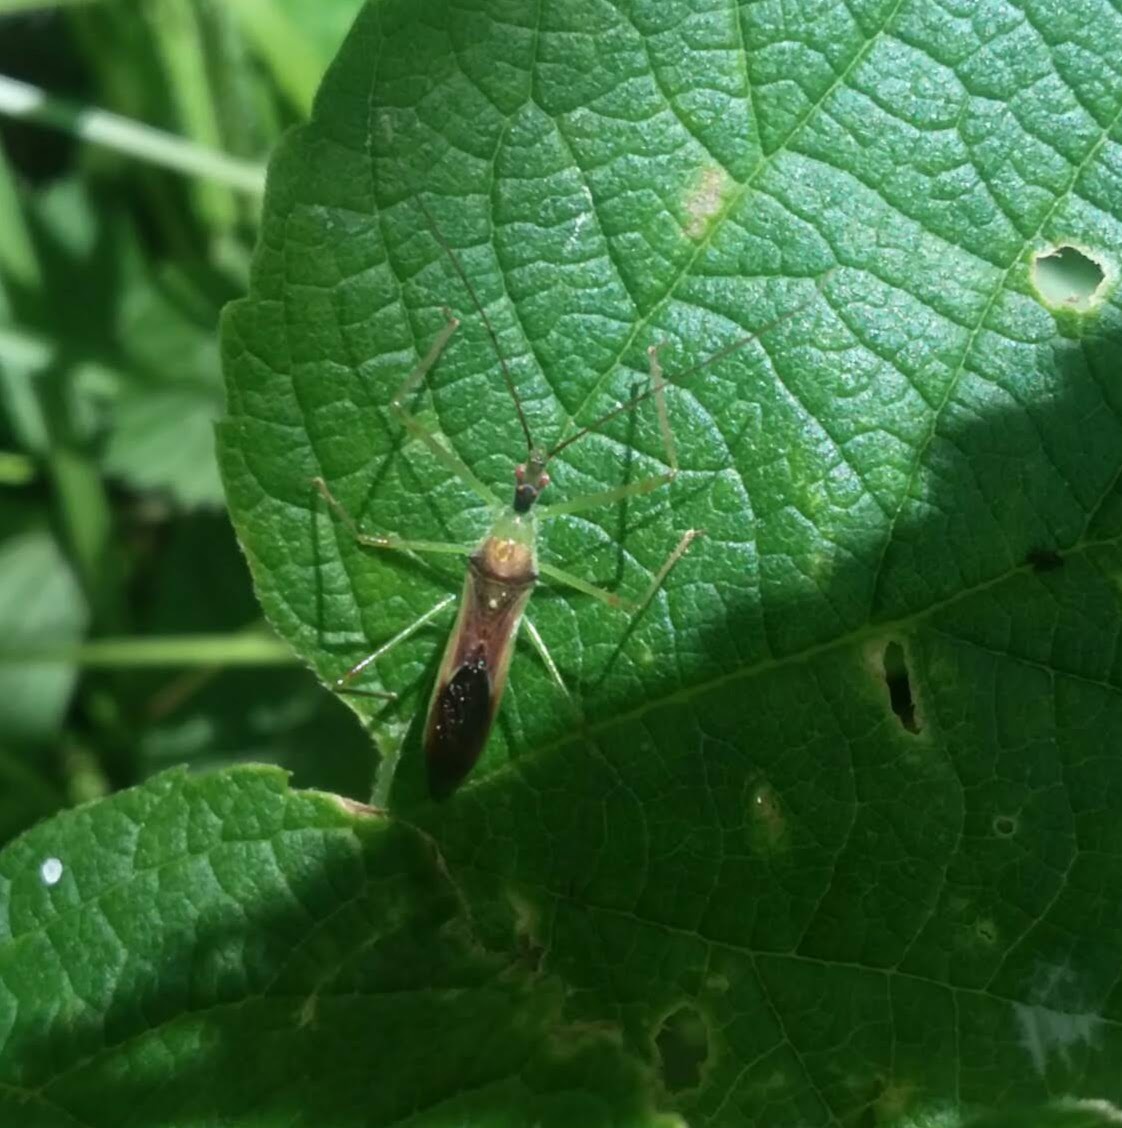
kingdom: Animalia
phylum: Arthropoda
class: Insecta
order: Hemiptera
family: Reduviidae
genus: Zelus
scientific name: Zelus luridus
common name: Pale green assassin bug
